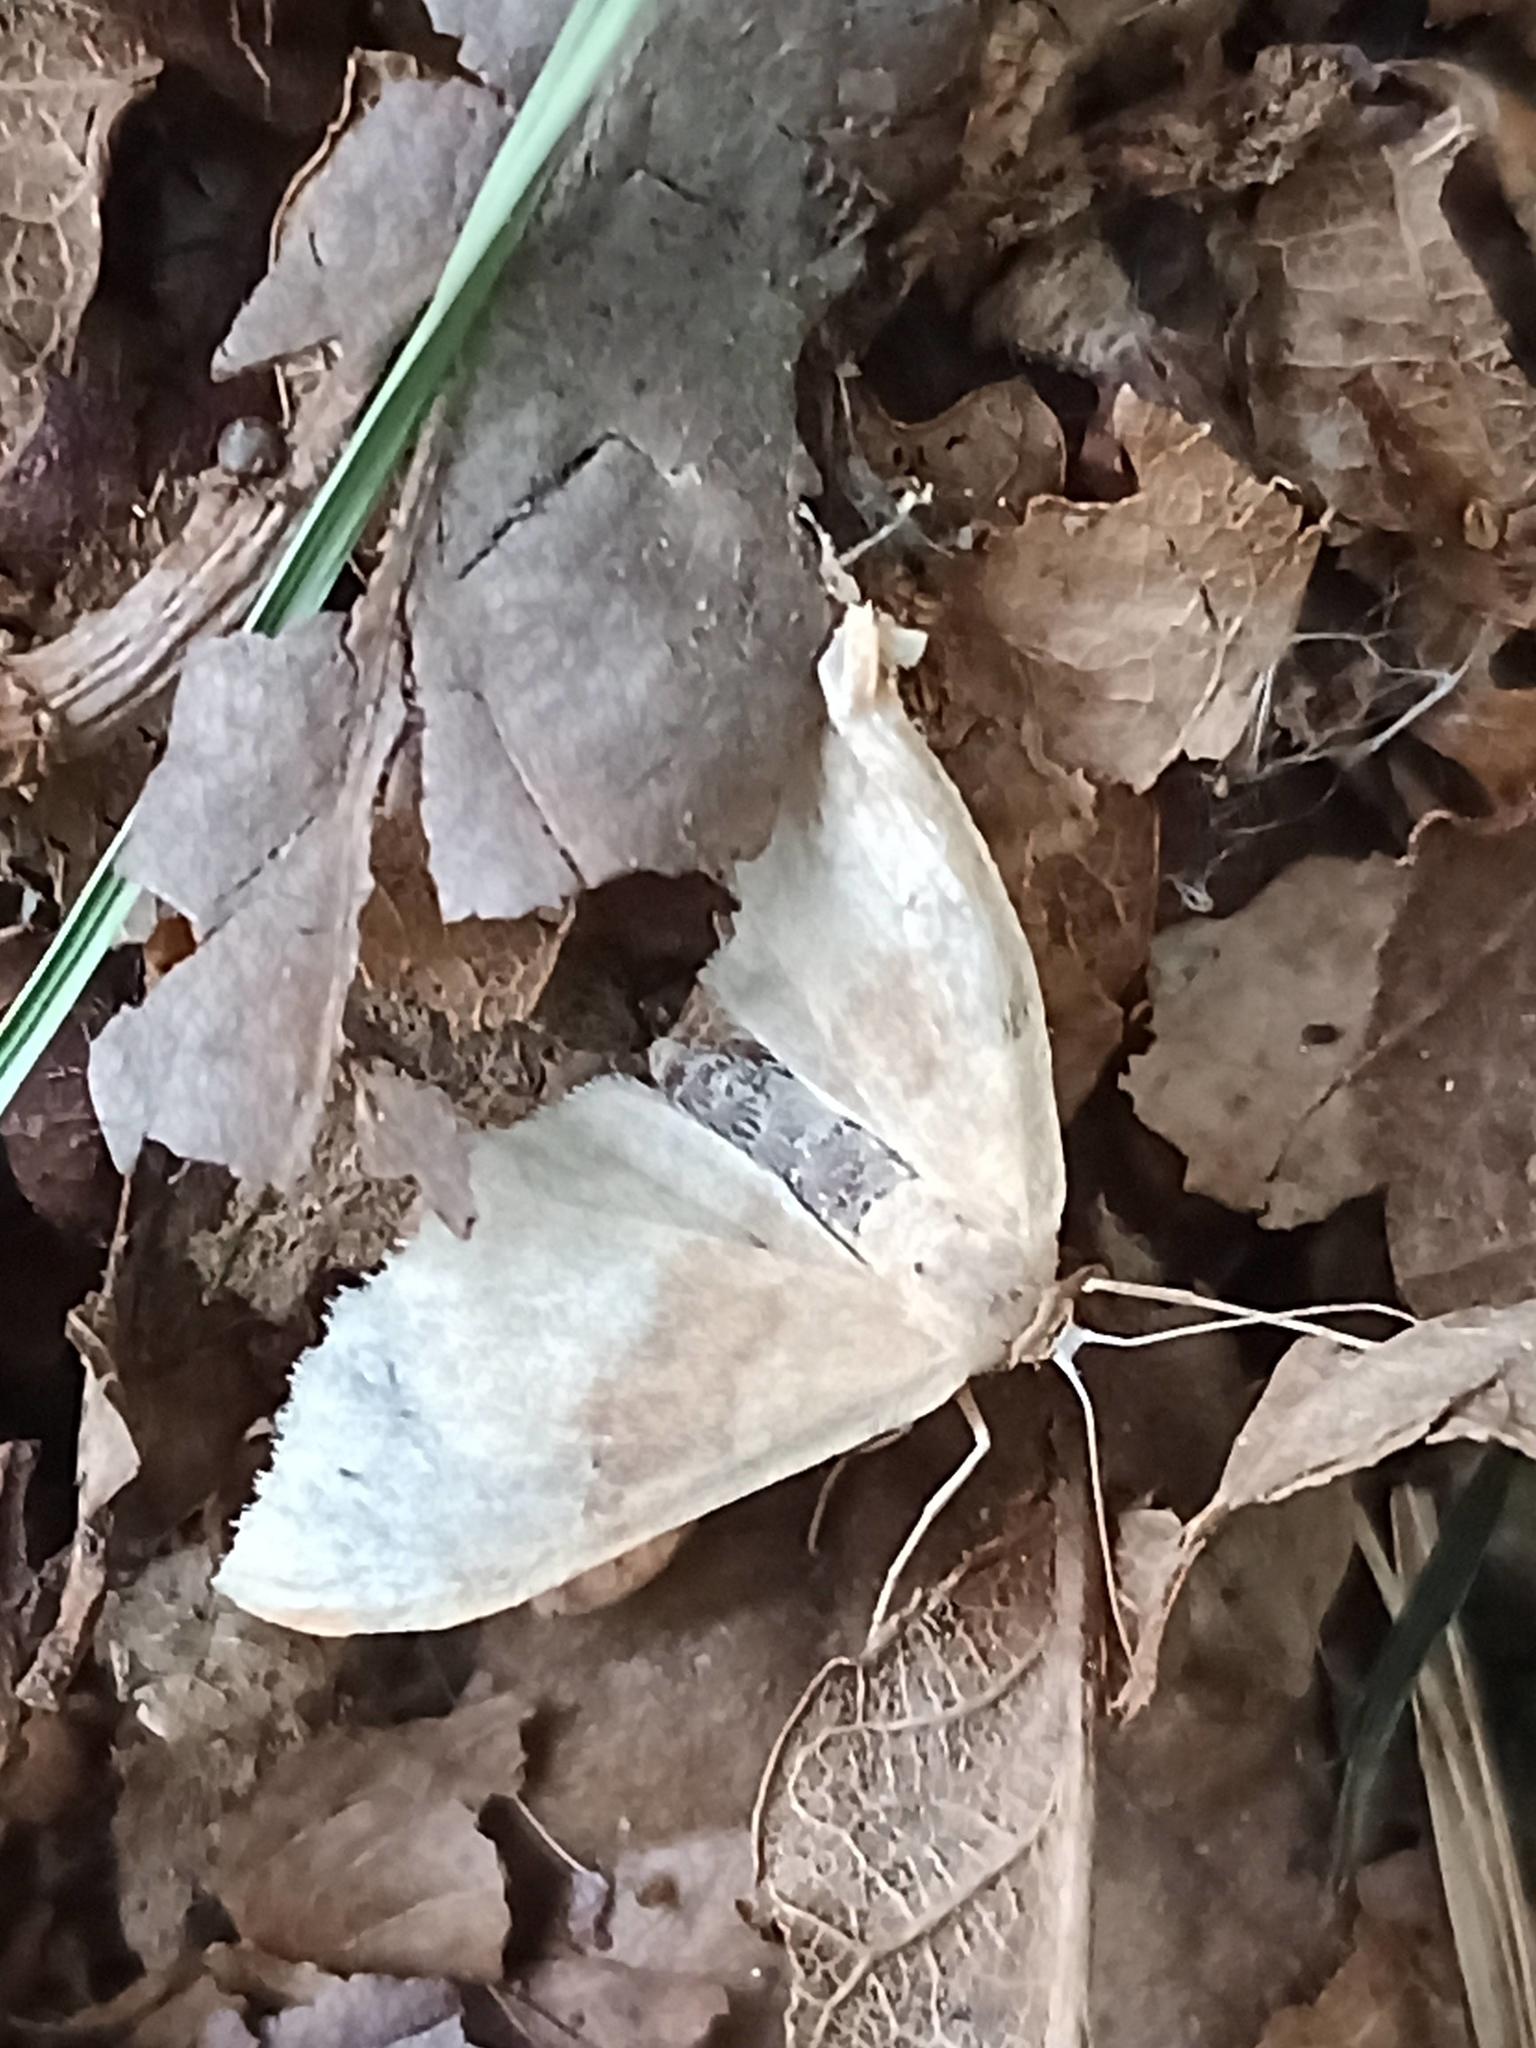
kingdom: Animalia
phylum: Arthropoda
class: Insecta
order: Lepidoptera
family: Geometridae
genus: Idaea
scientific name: Idaea eugeniata
